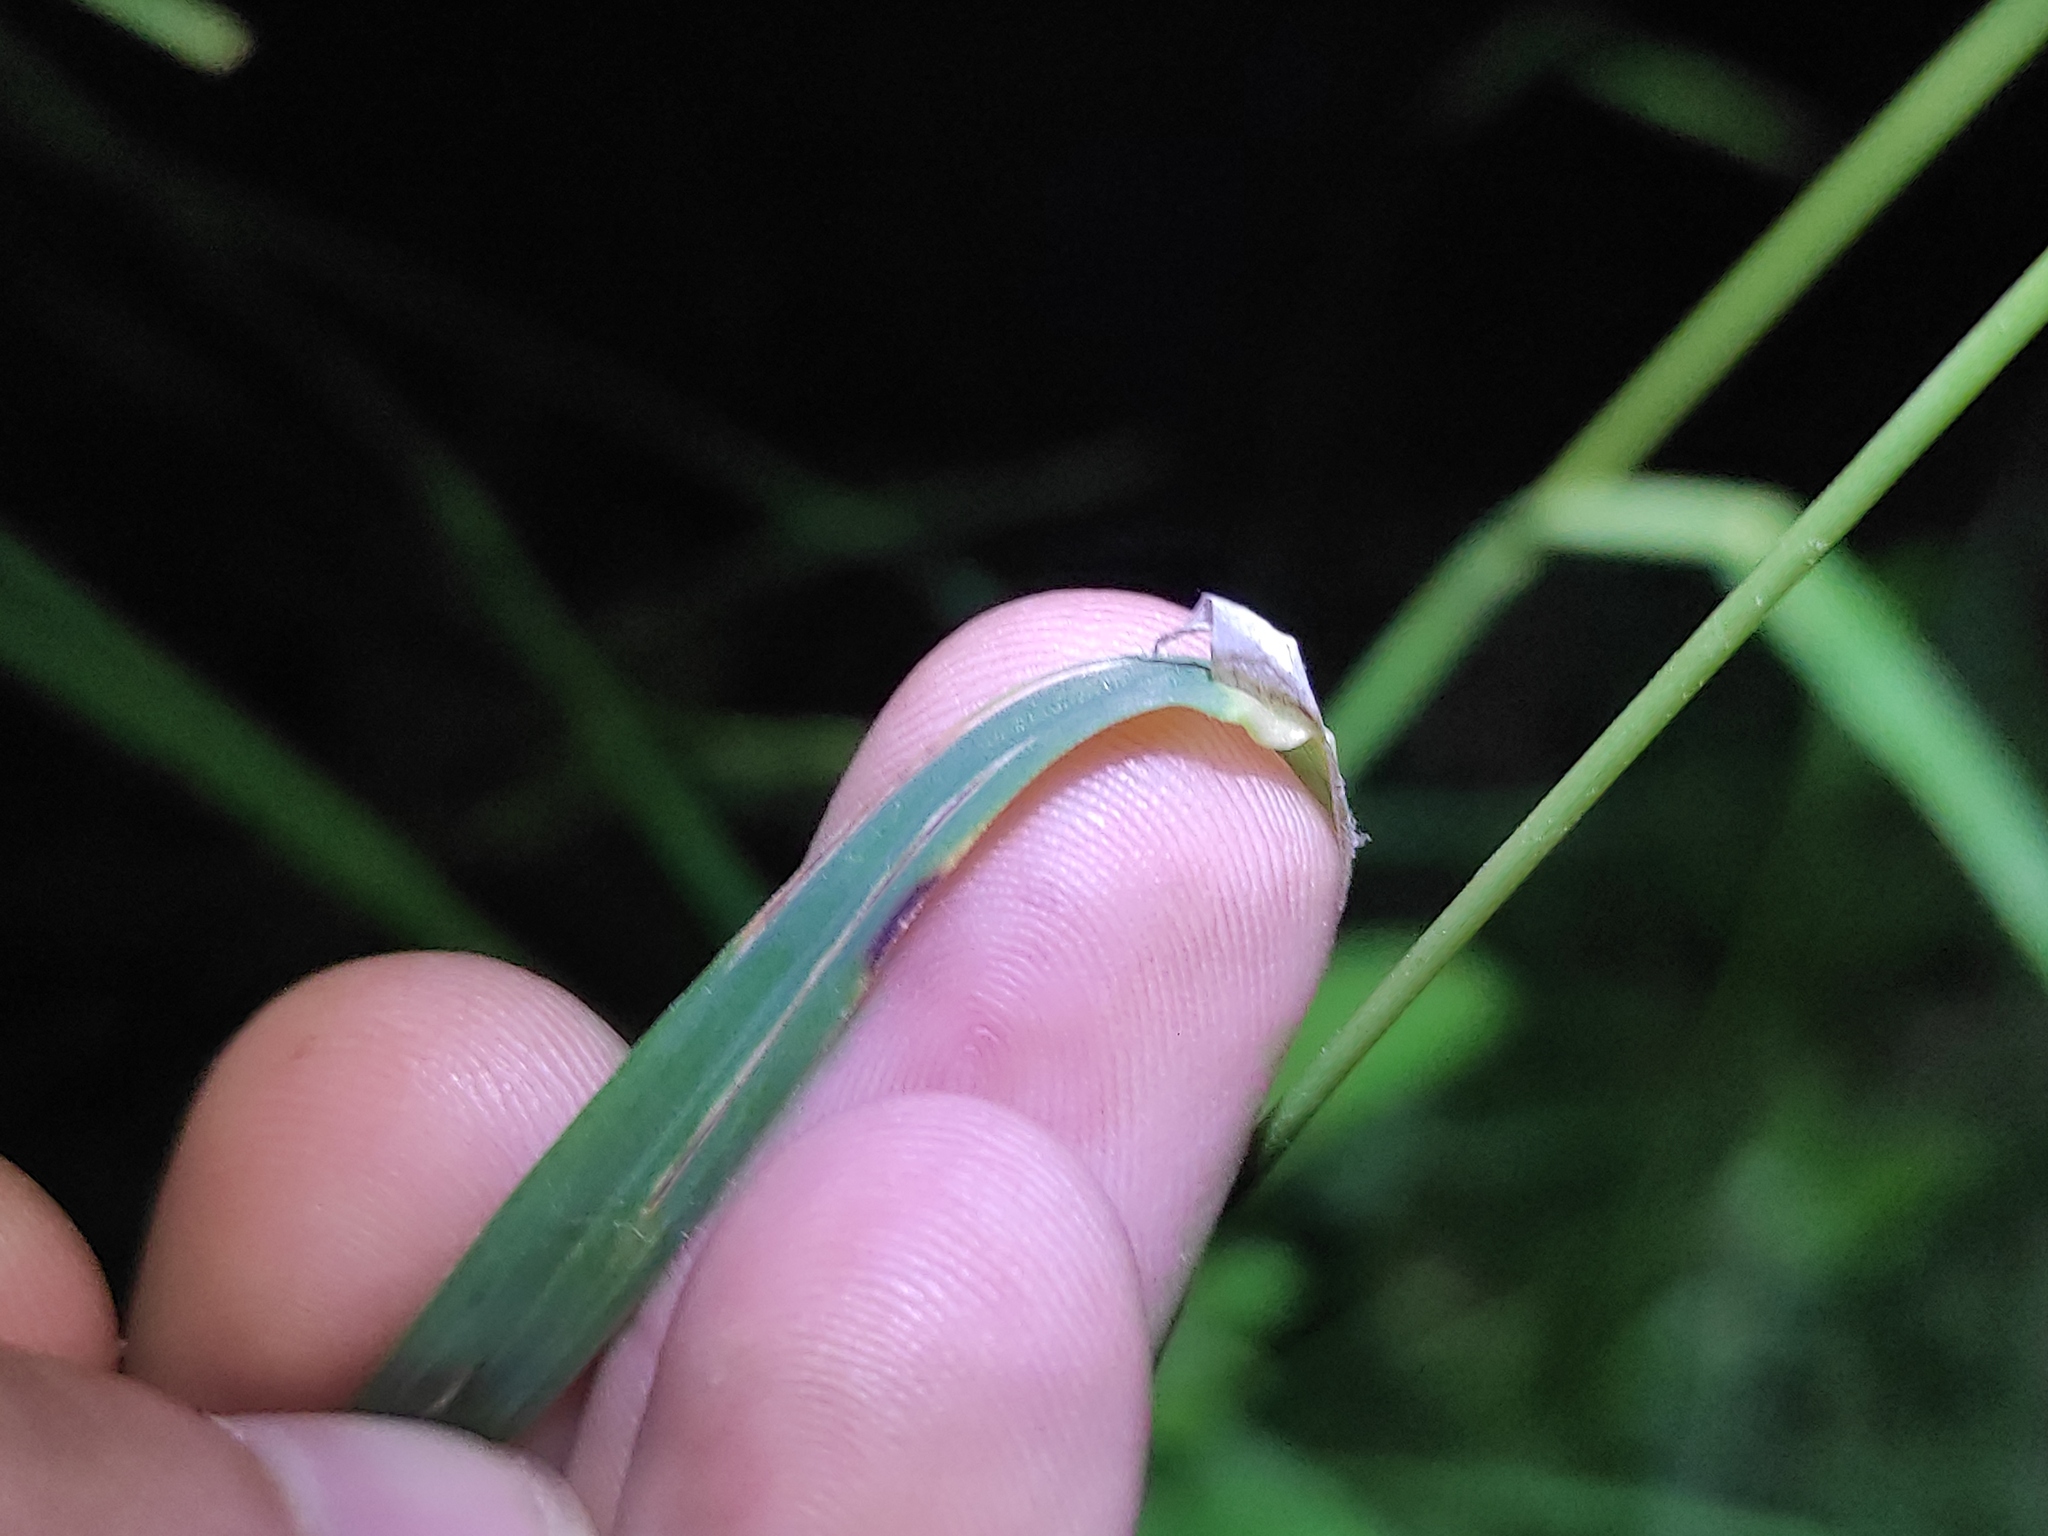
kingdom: Plantae
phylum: Tracheophyta
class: Liliopsida
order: Poales
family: Poaceae
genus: Dactylis
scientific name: Dactylis glomerata
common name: Orchardgrass
